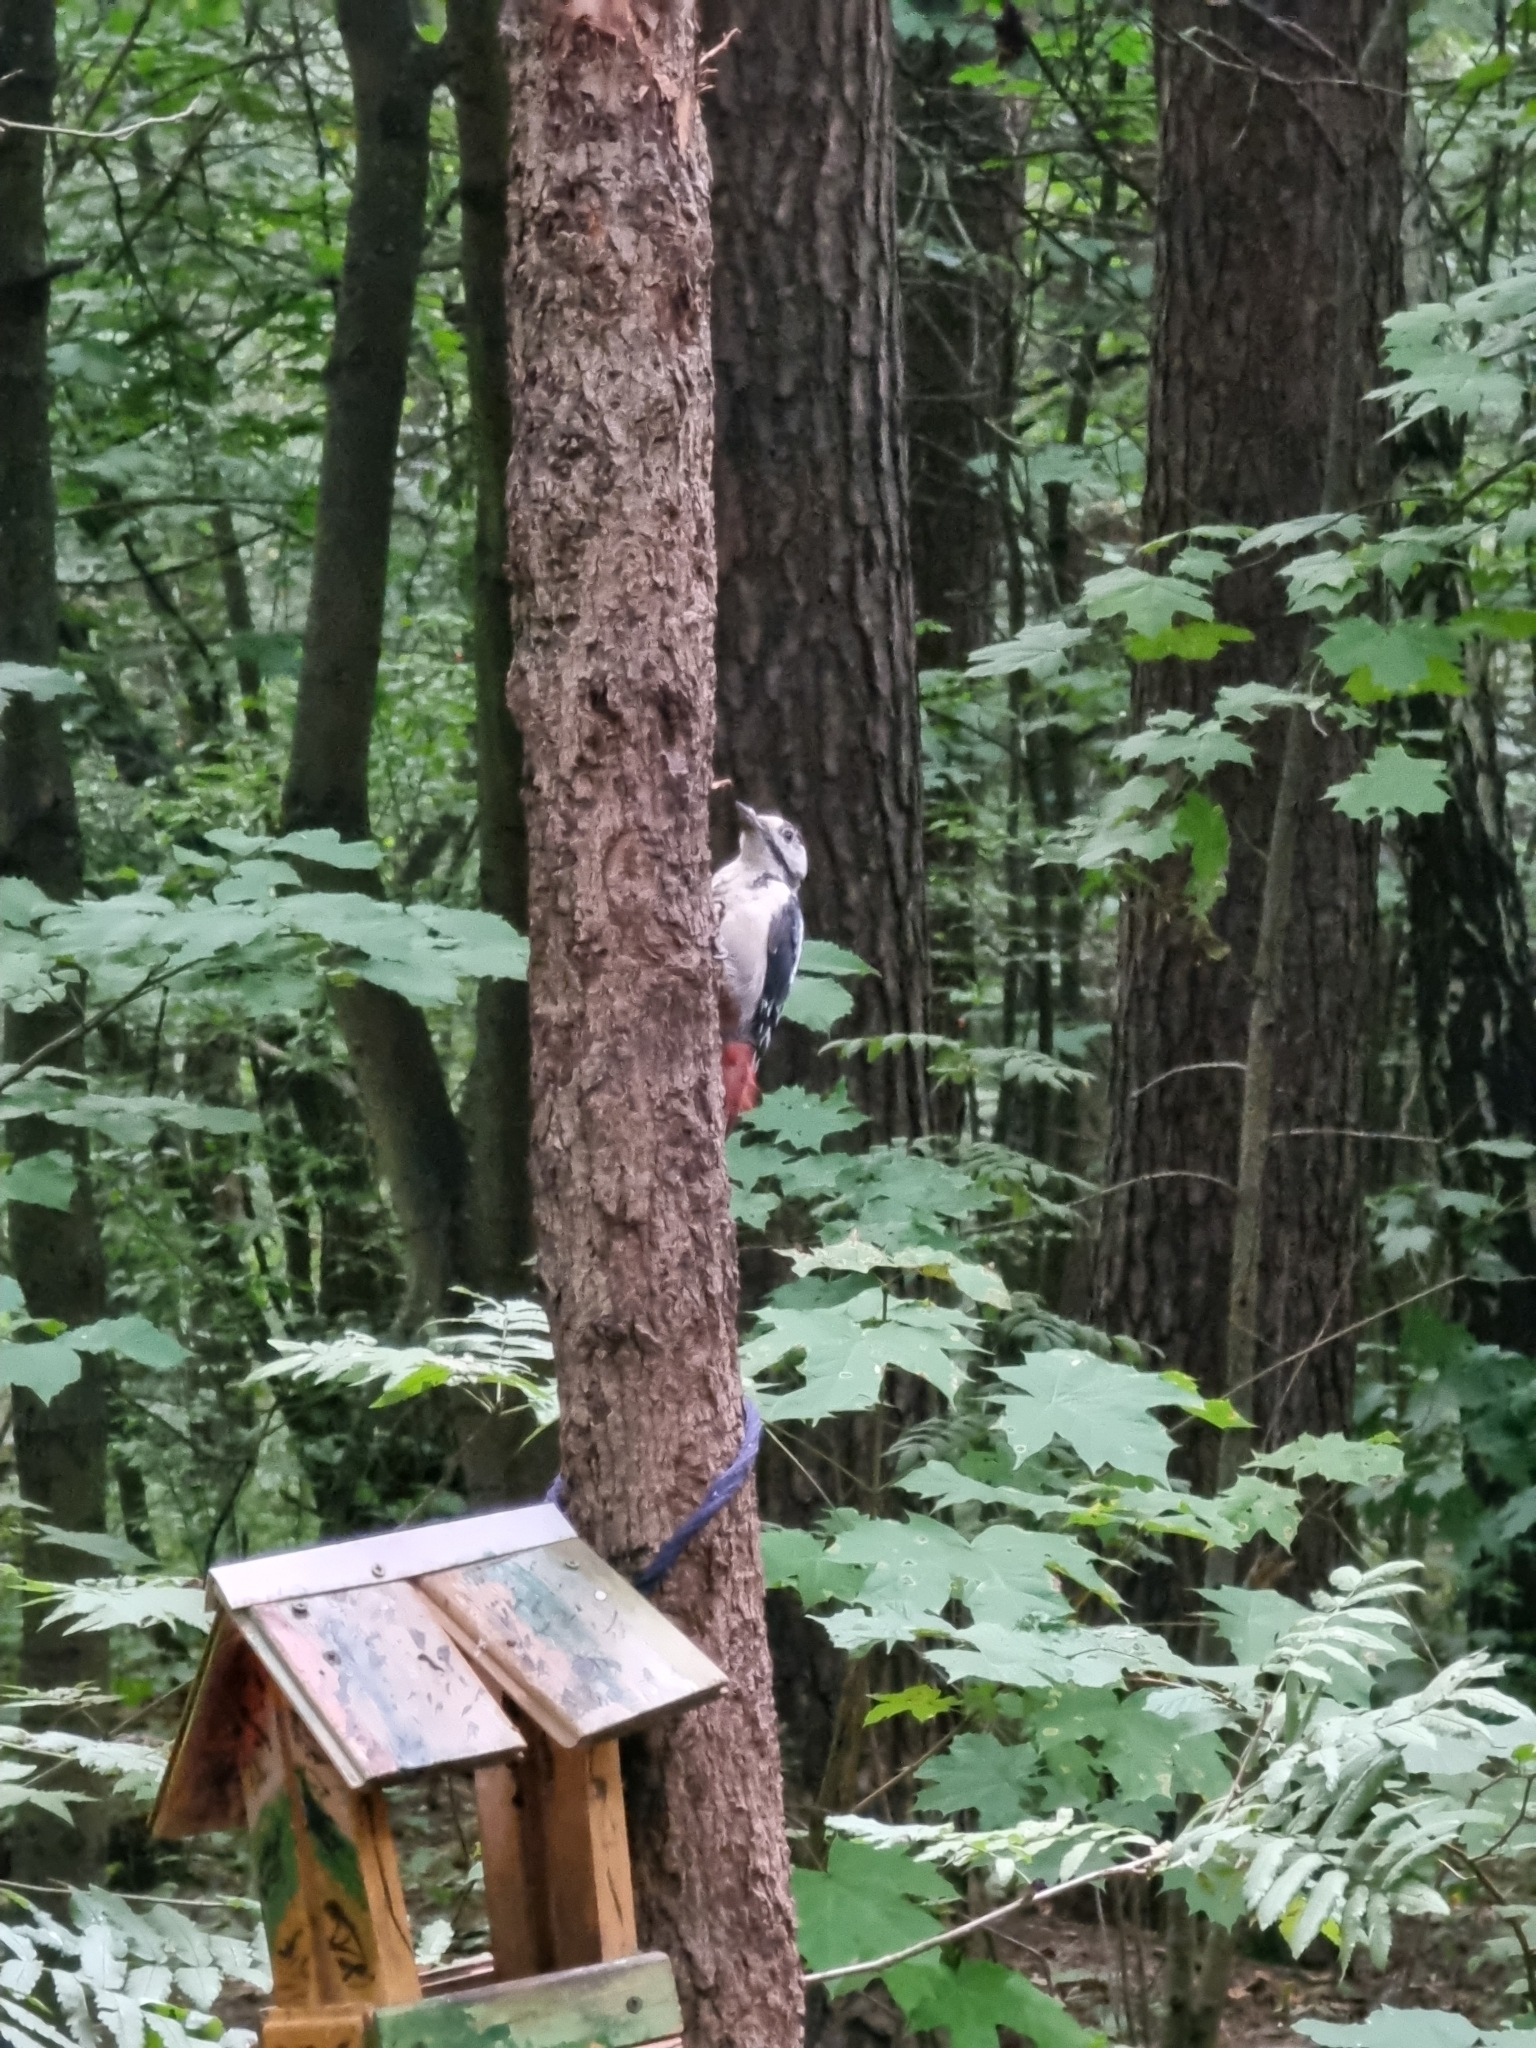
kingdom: Animalia
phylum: Chordata
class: Aves
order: Piciformes
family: Picidae
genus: Dendrocopos
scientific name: Dendrocopos major
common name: Great spotted woodpecker
